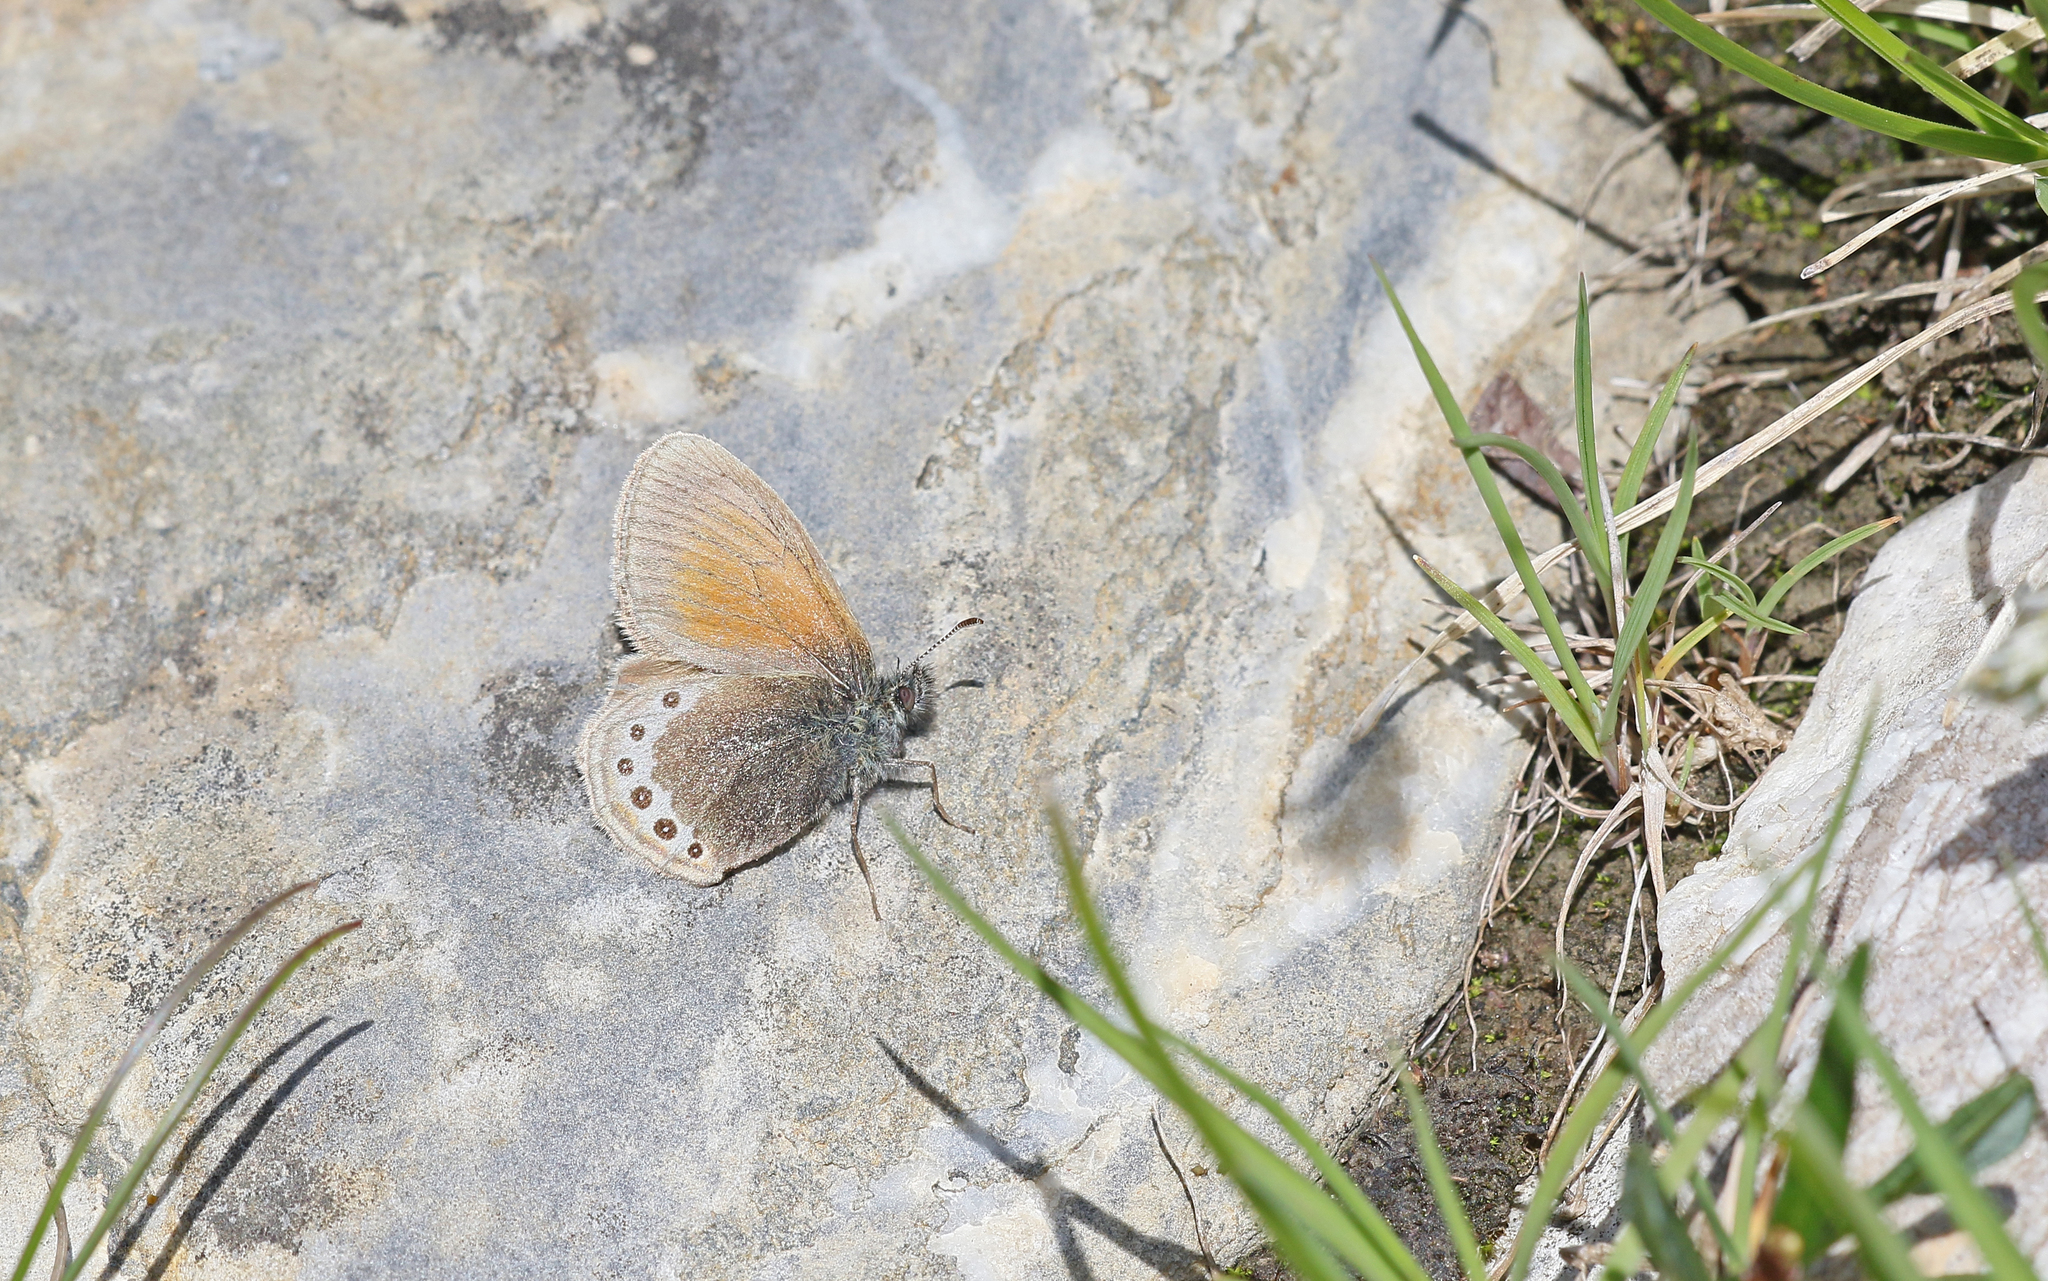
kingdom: Animalia
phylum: Arthropoda
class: Insecta
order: Lepidoptera
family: Nymphalidae
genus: Coenonympha
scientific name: Coenonympha
